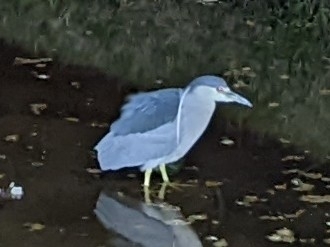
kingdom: Animalia
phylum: Chordata
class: Aves
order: Pelecaniformes
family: Ardeidae
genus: Nycticorax
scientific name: Nycticorax nycticorax
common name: Black-crowned night heron
